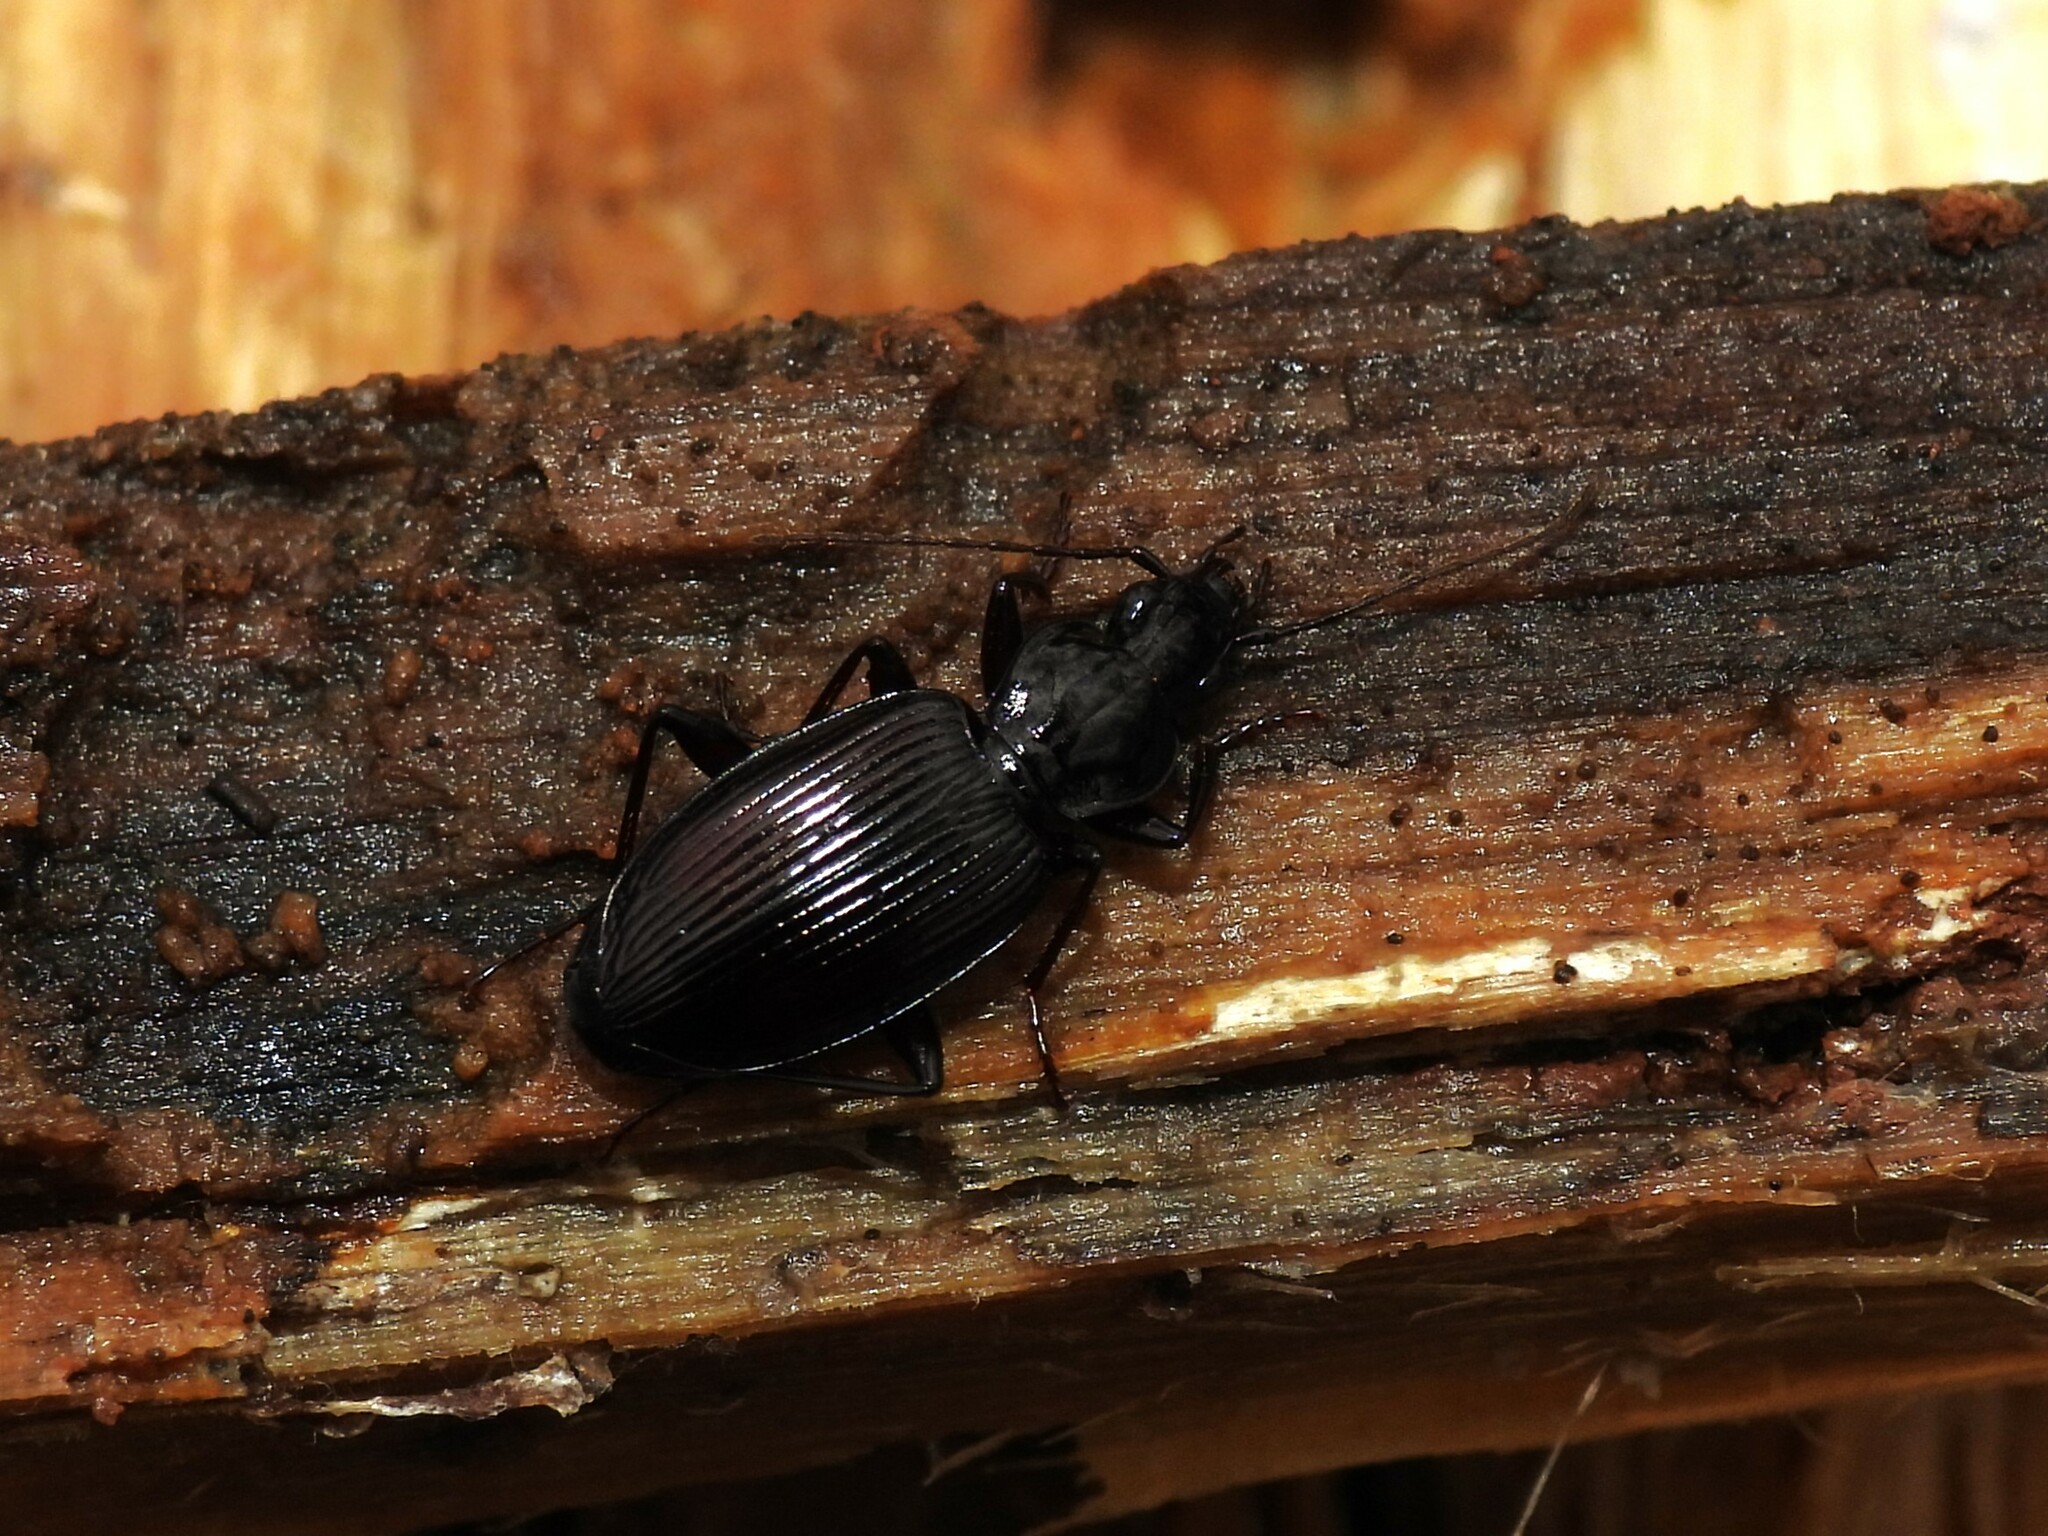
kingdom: Animalia
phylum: Arthropoda
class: Insecta
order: Coleoptera
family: Carabidae
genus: Platynus
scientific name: Platynus decentis
